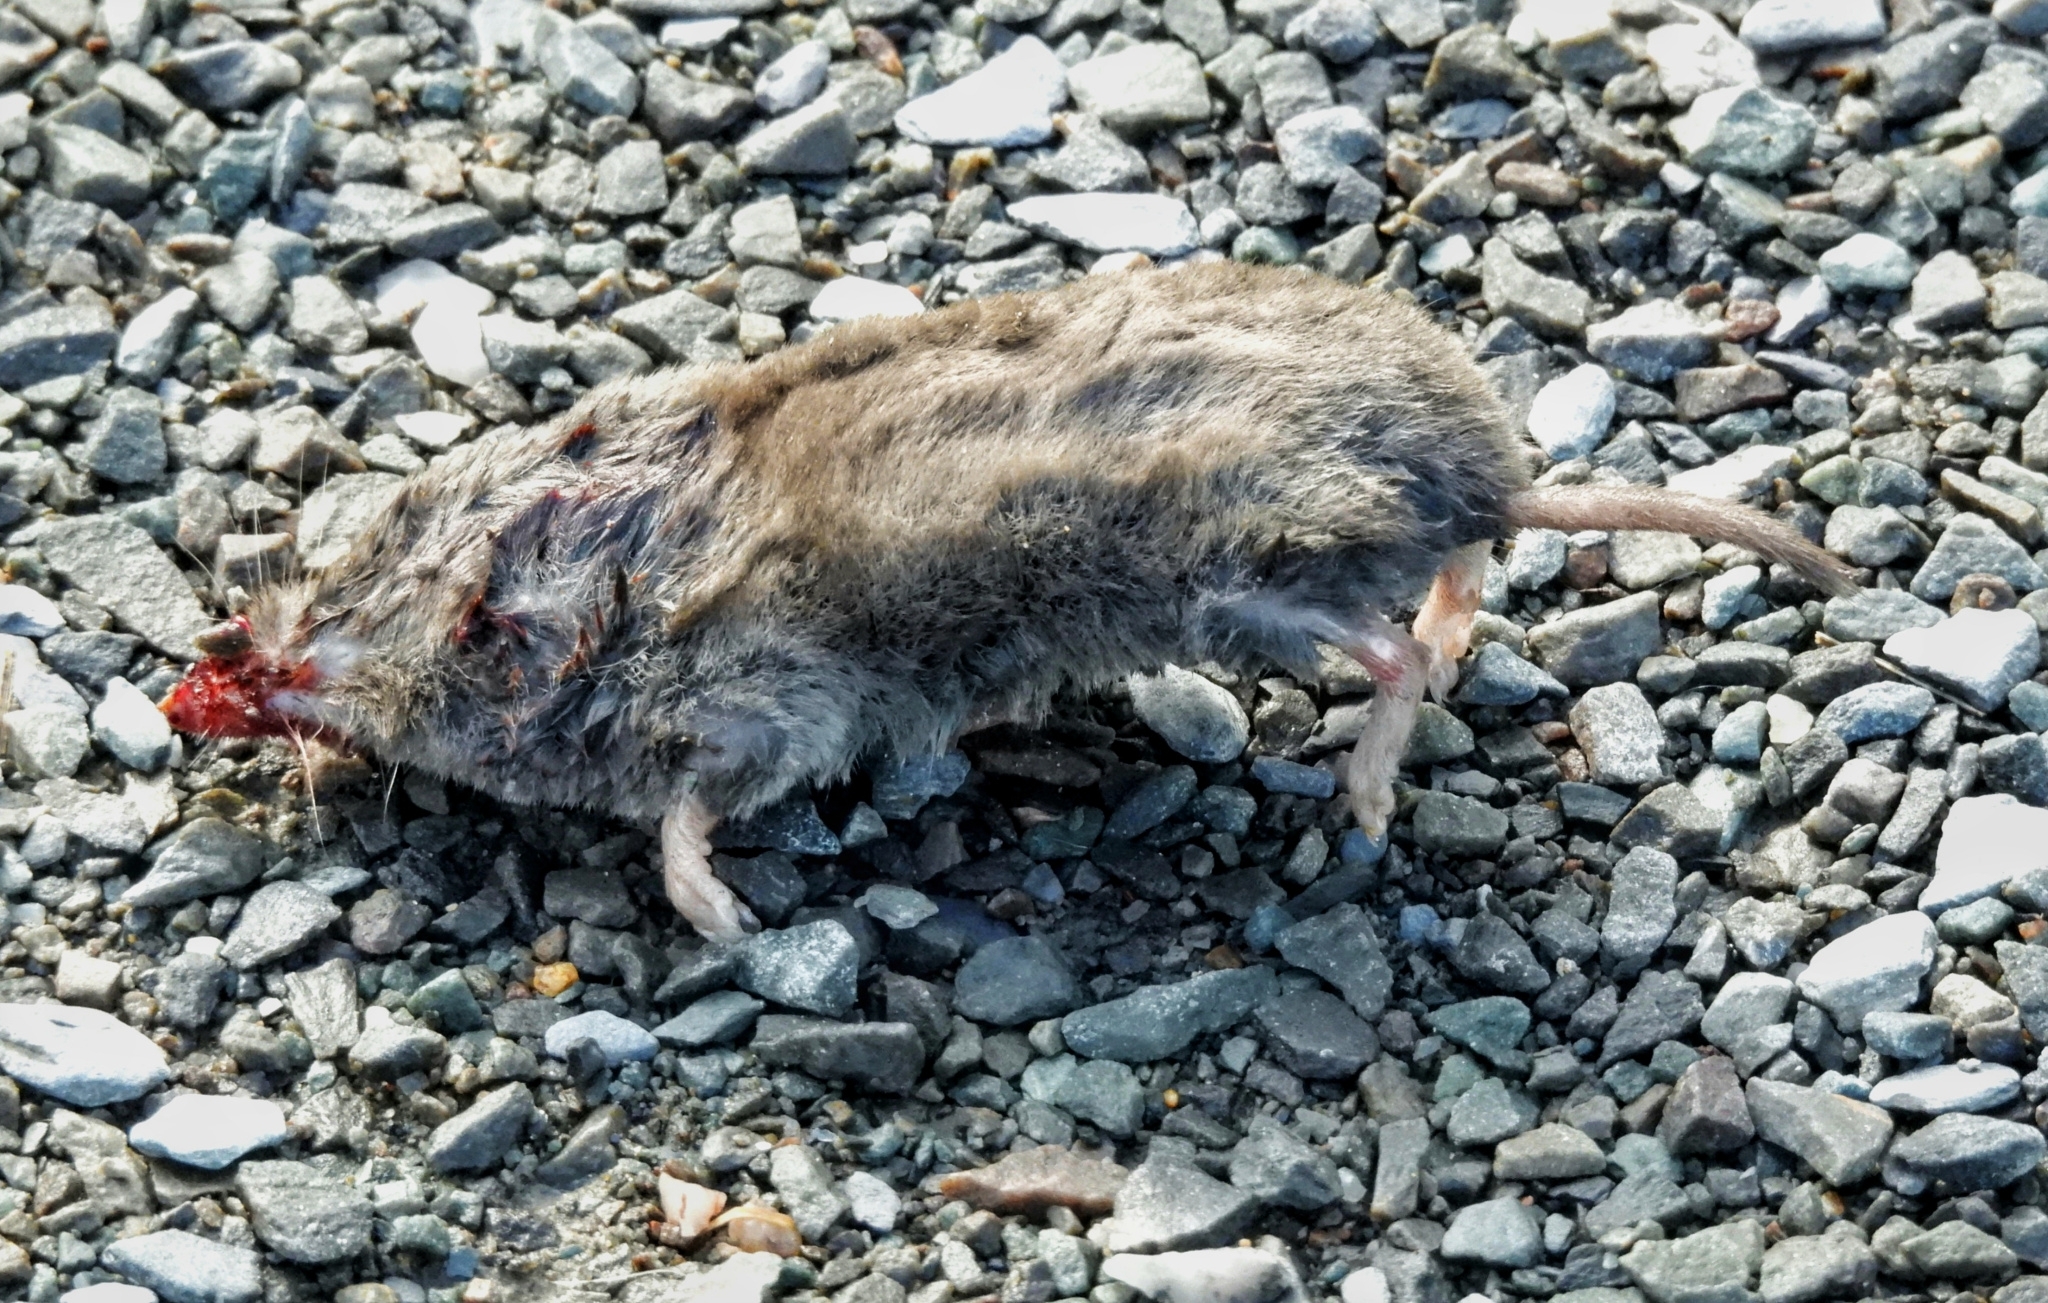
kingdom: Animalia
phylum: Chordata
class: Mammalia
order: Soricomorpha
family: Soricidae
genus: Blarina
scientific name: Blarina brevicauda
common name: Northern short-tailed shrew
